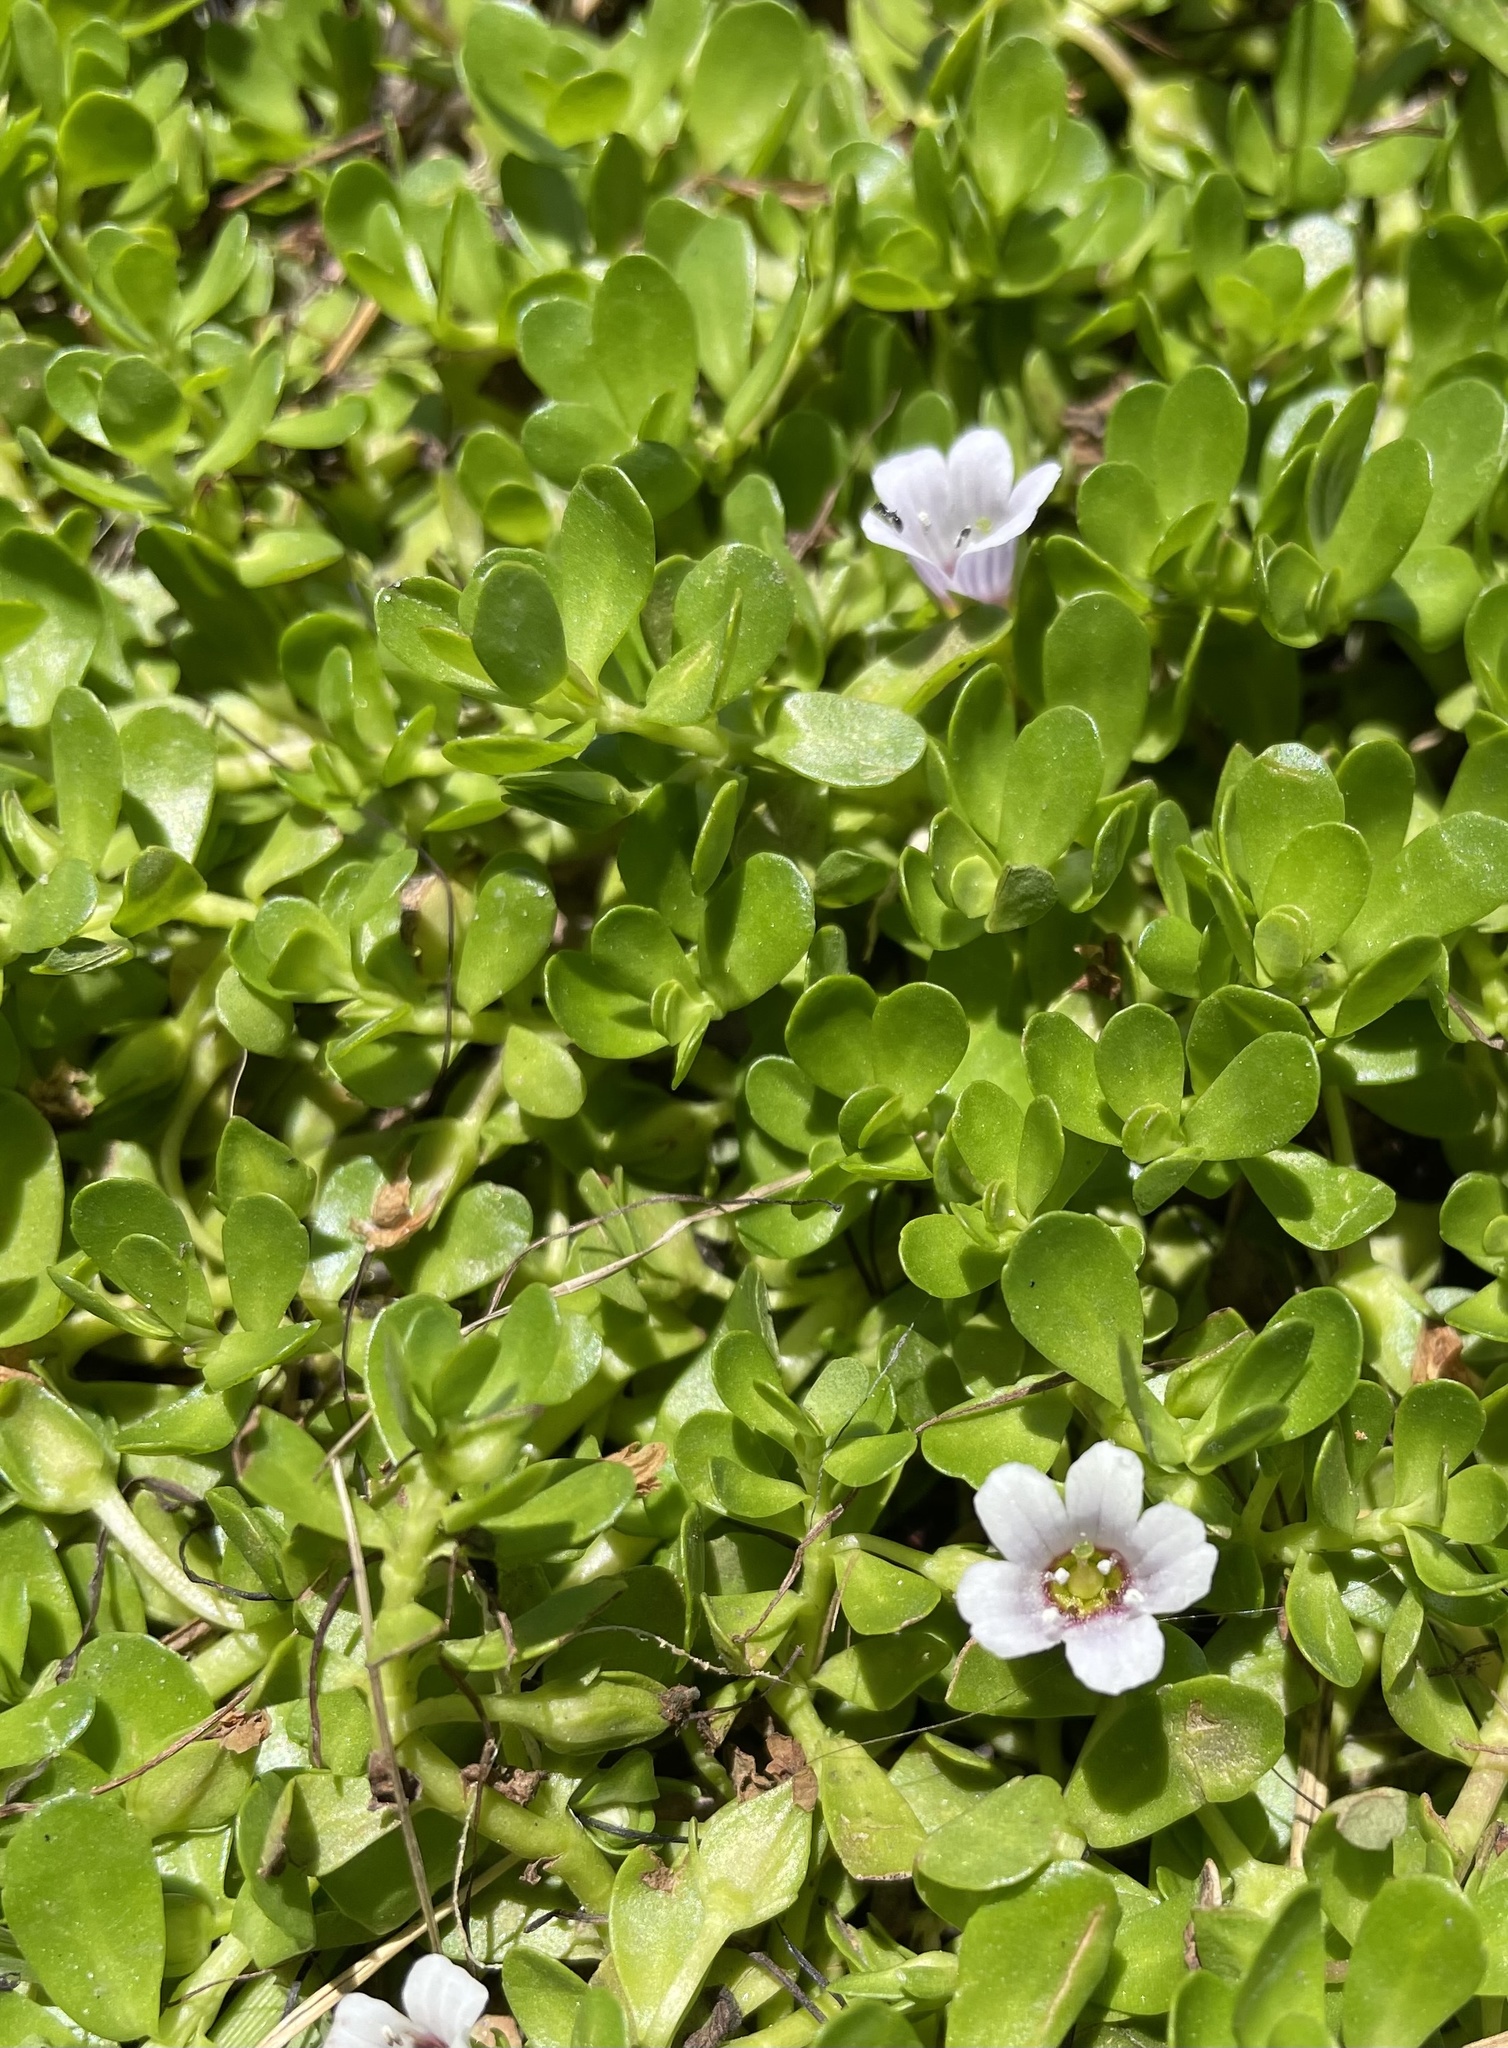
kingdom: Plantae
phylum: Tracheophyta
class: Magnoliopsida
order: Lamiales
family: Plantaginaceae
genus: Bacopa
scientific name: Bacopa monnieri
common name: Indian-pennywort
